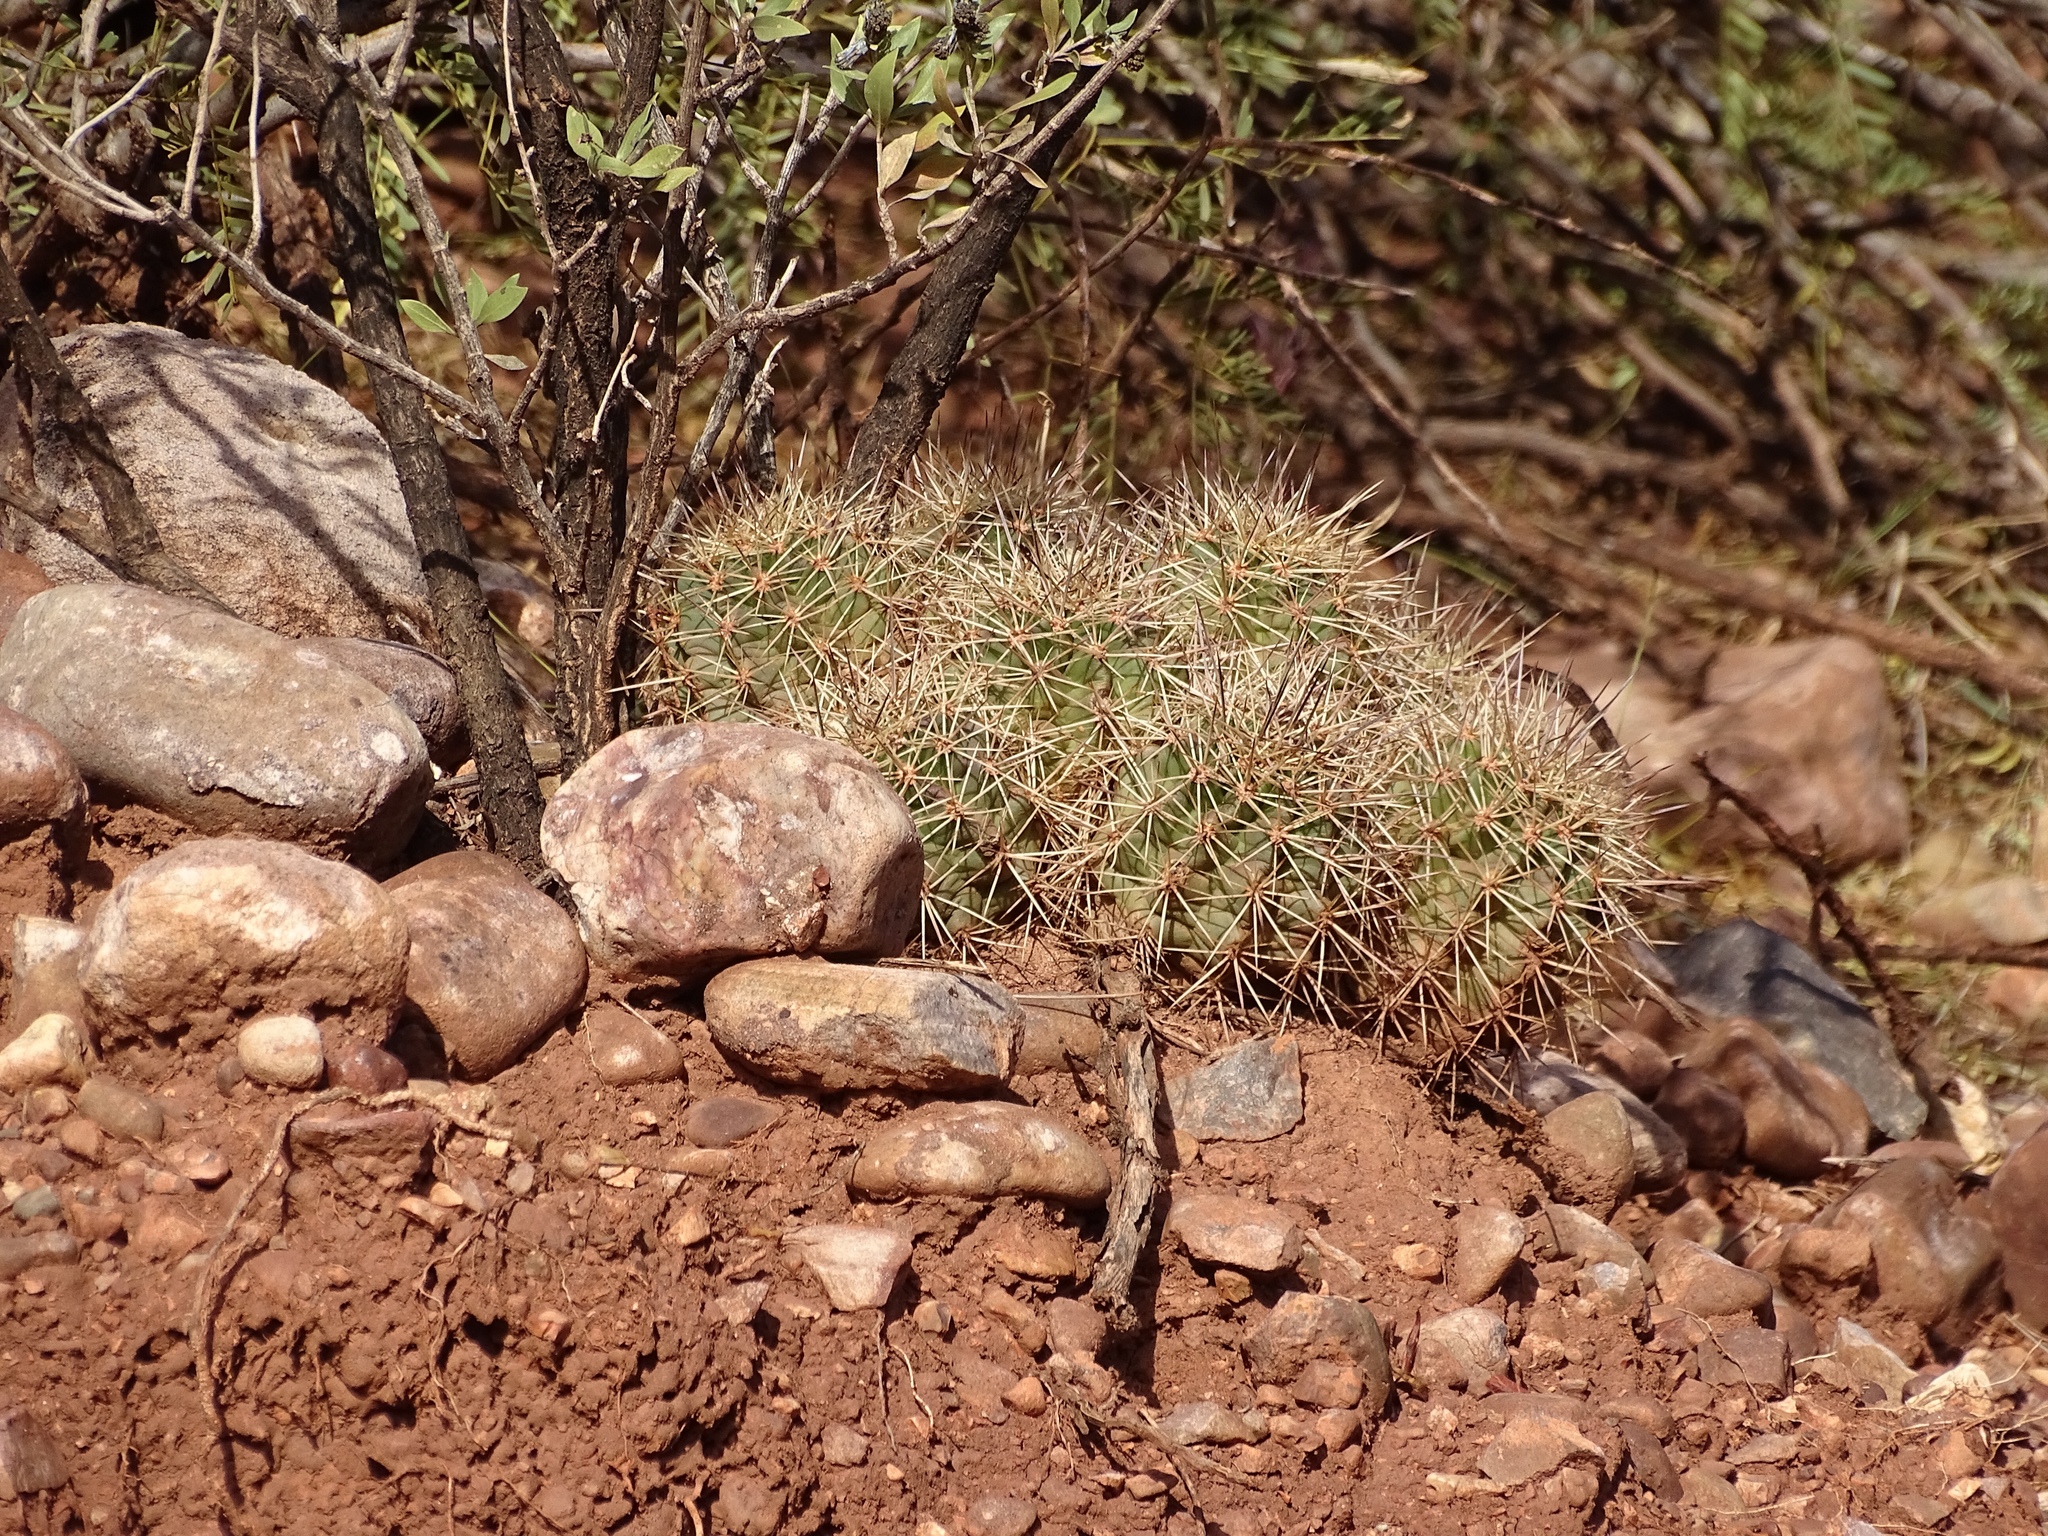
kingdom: Plantae
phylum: Tracheophyta
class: Magnoliopsida
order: Caryophyllales
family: Cactaceae
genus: Echinocereus
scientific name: Echinocereus coccineus
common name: Scarlet hedgehog cactus
